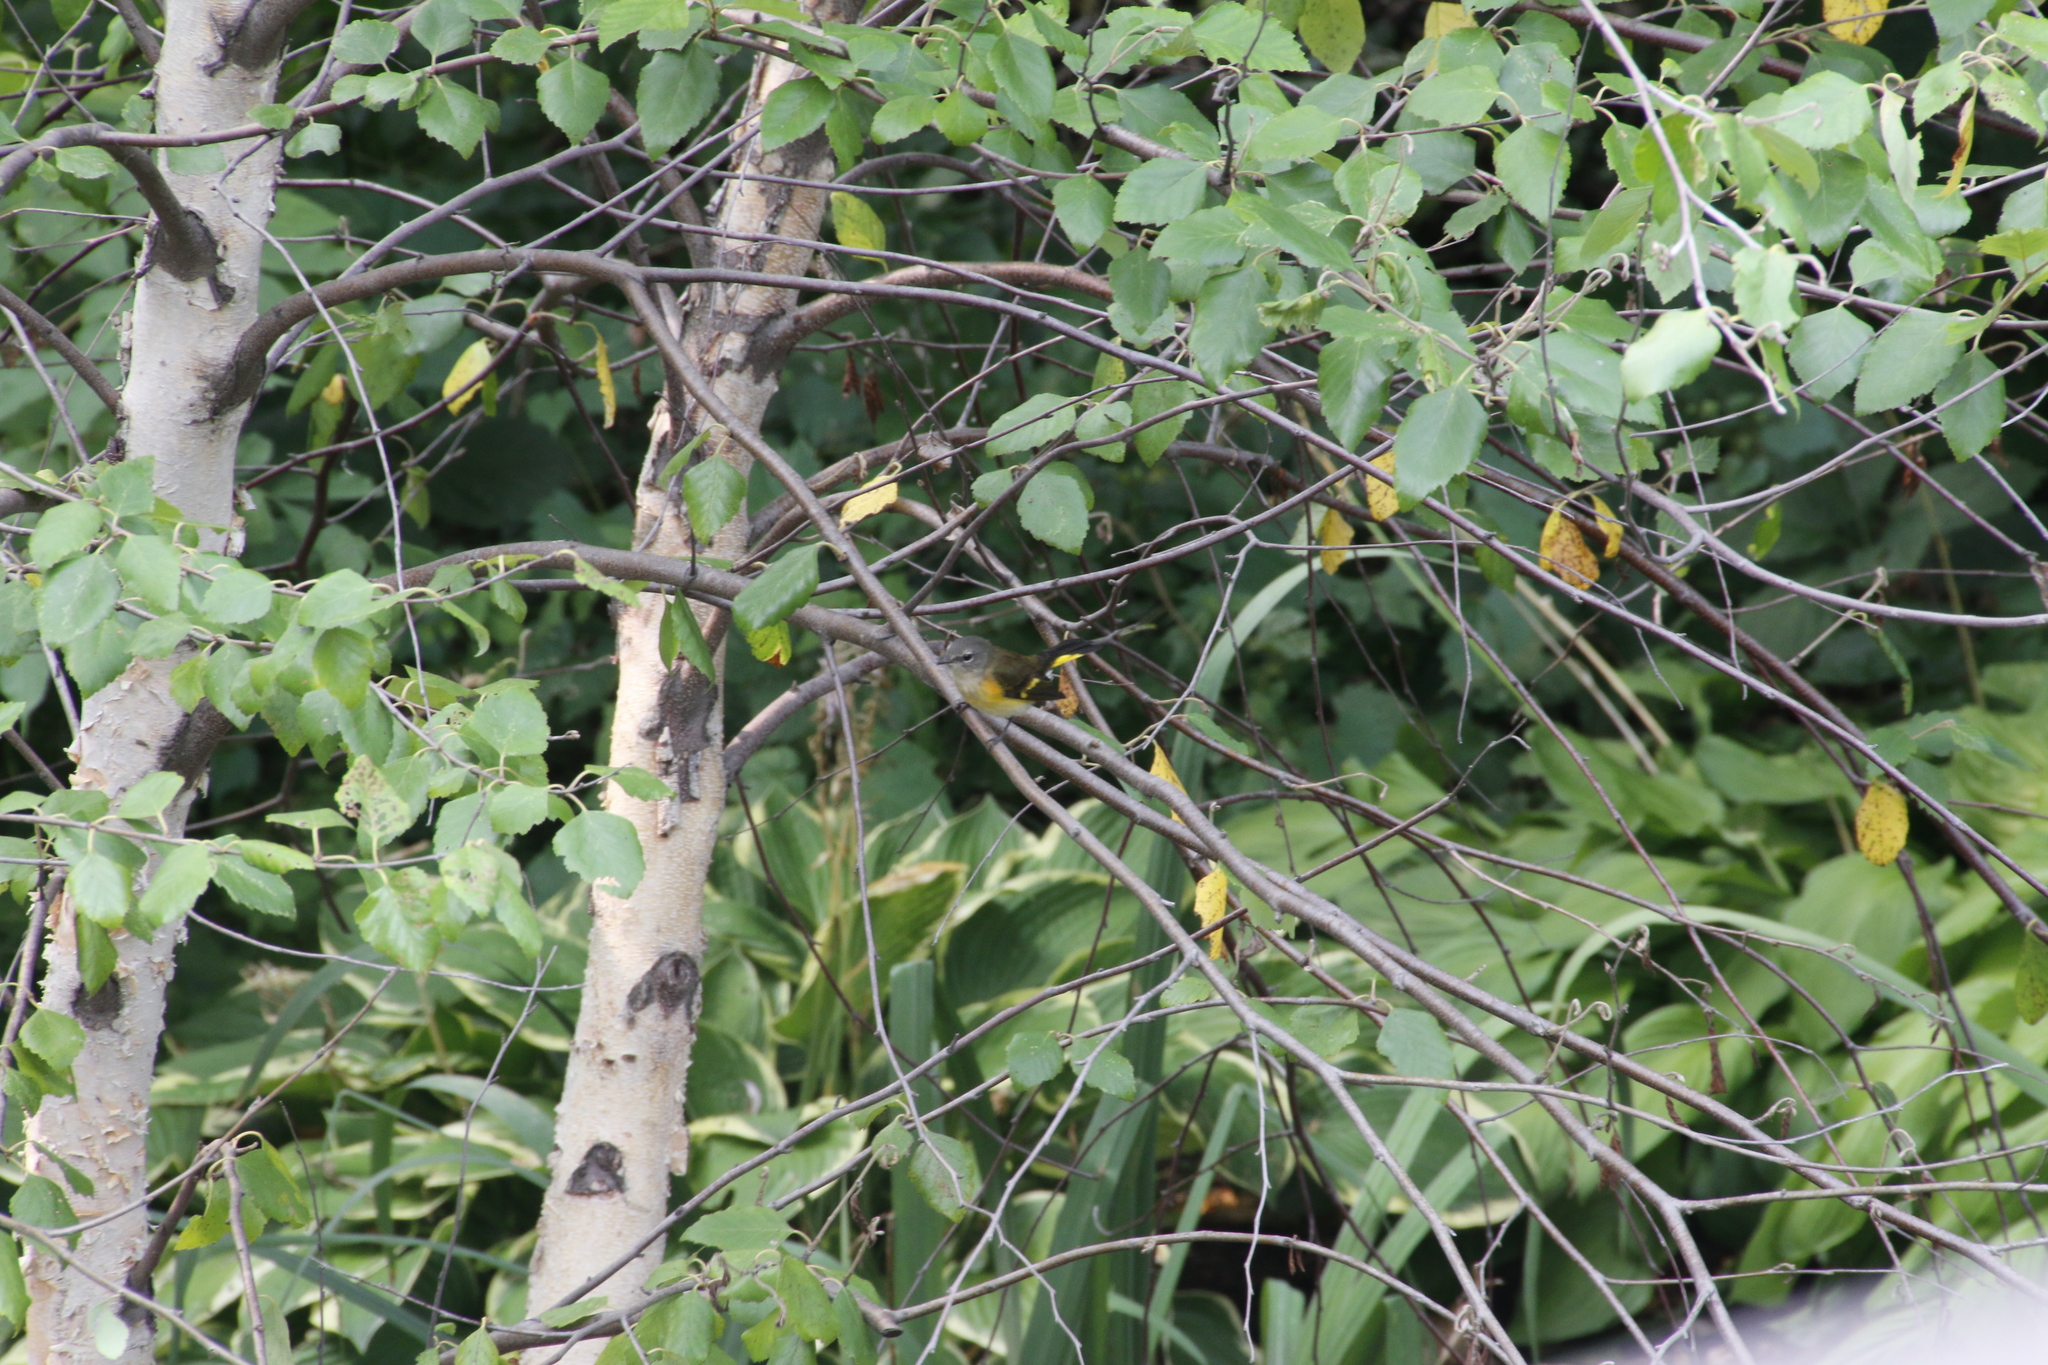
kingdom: Animalia
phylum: Chordata
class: Aves
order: Passeriformes
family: Parulidae
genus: Setophaga
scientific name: Setophaga ruticilla
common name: American redstart
